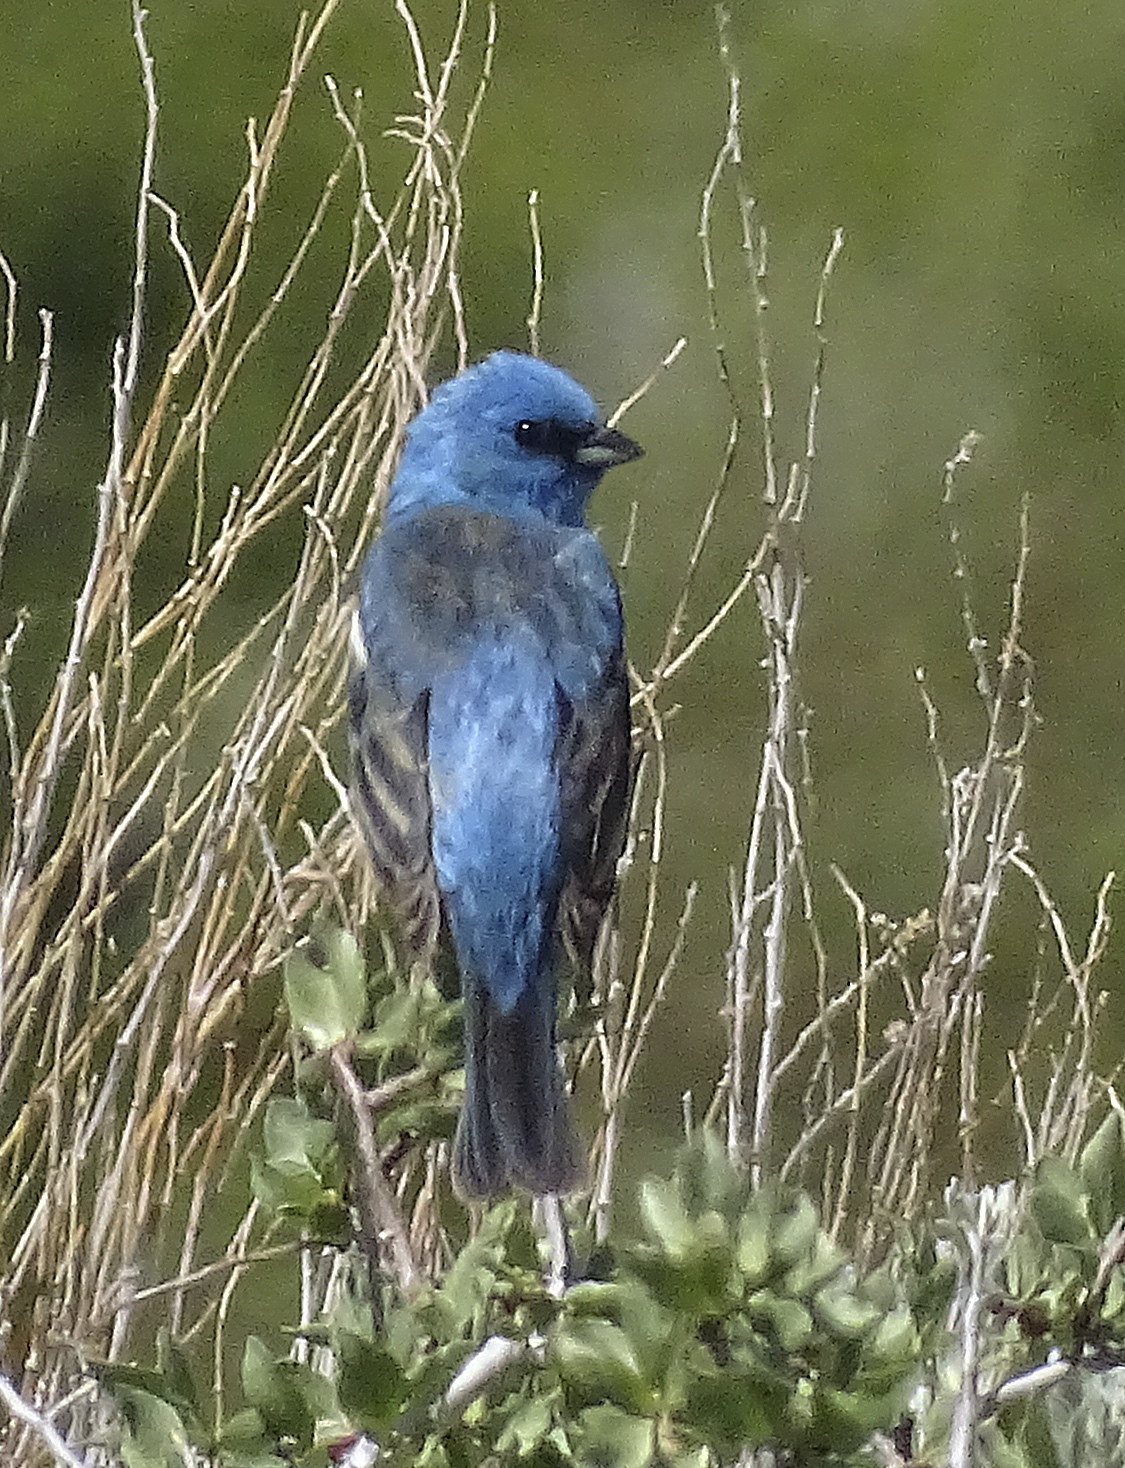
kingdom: Animalia
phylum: Chordata
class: Aves
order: Passeriformes
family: Cardinalidae
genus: Passerina
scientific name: Passerina amoena
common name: Lazuli bunting
